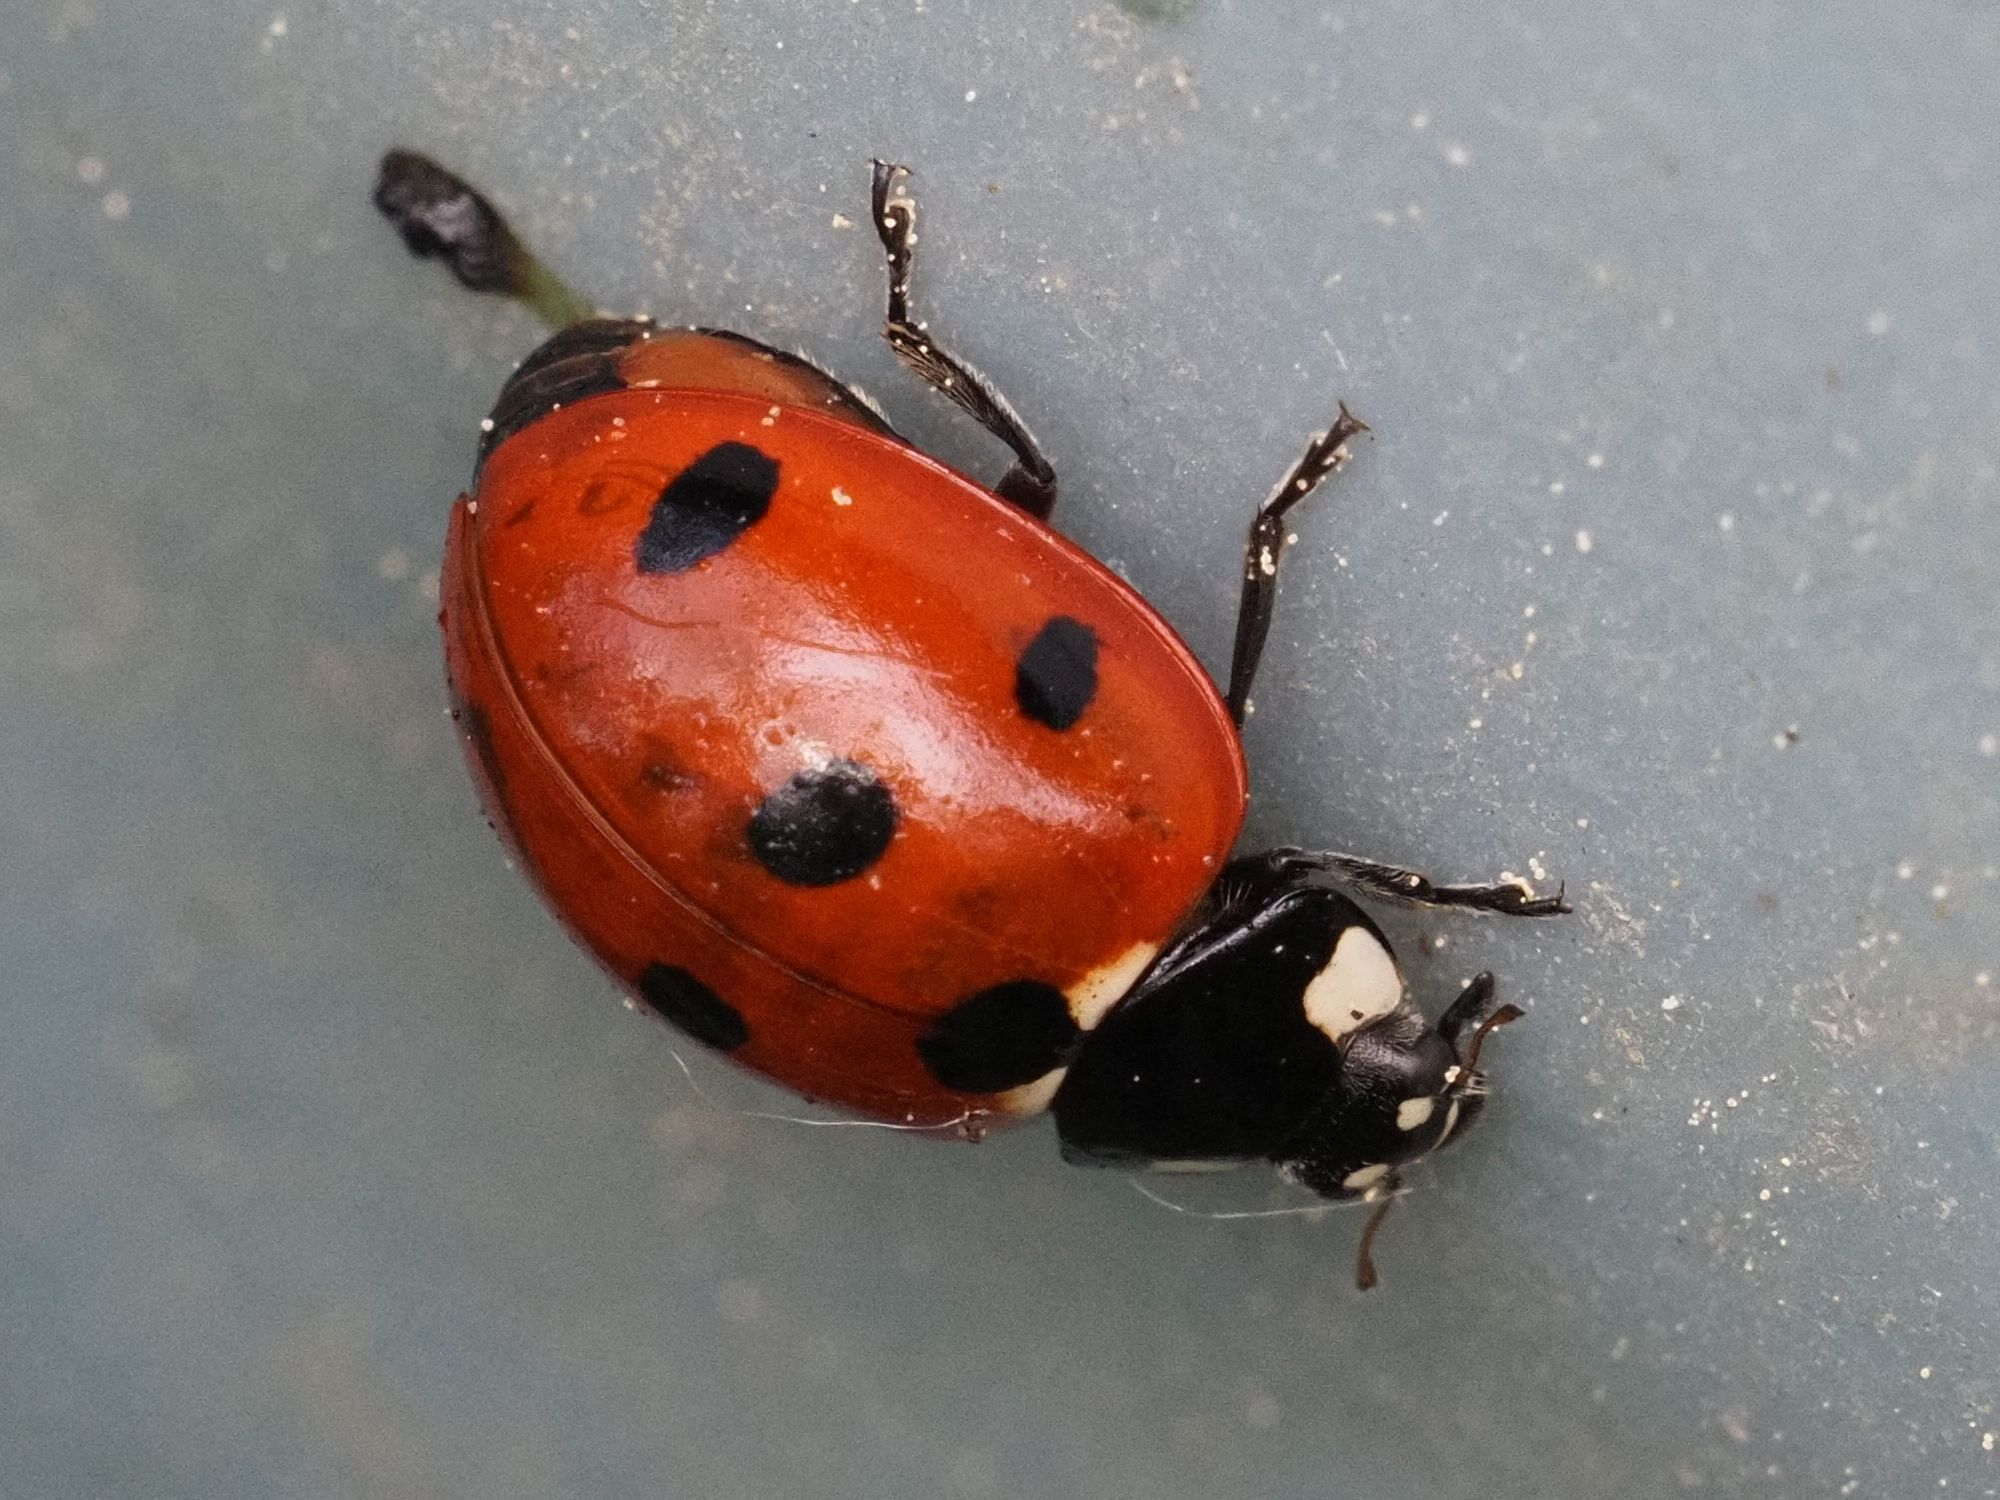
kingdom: Animalia
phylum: Arthropoda
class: Insecta
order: Coleoptera
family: Coccinellidae
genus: Coccinella
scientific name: Coccinella septempunctata
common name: Sevenspotted lady beetle
